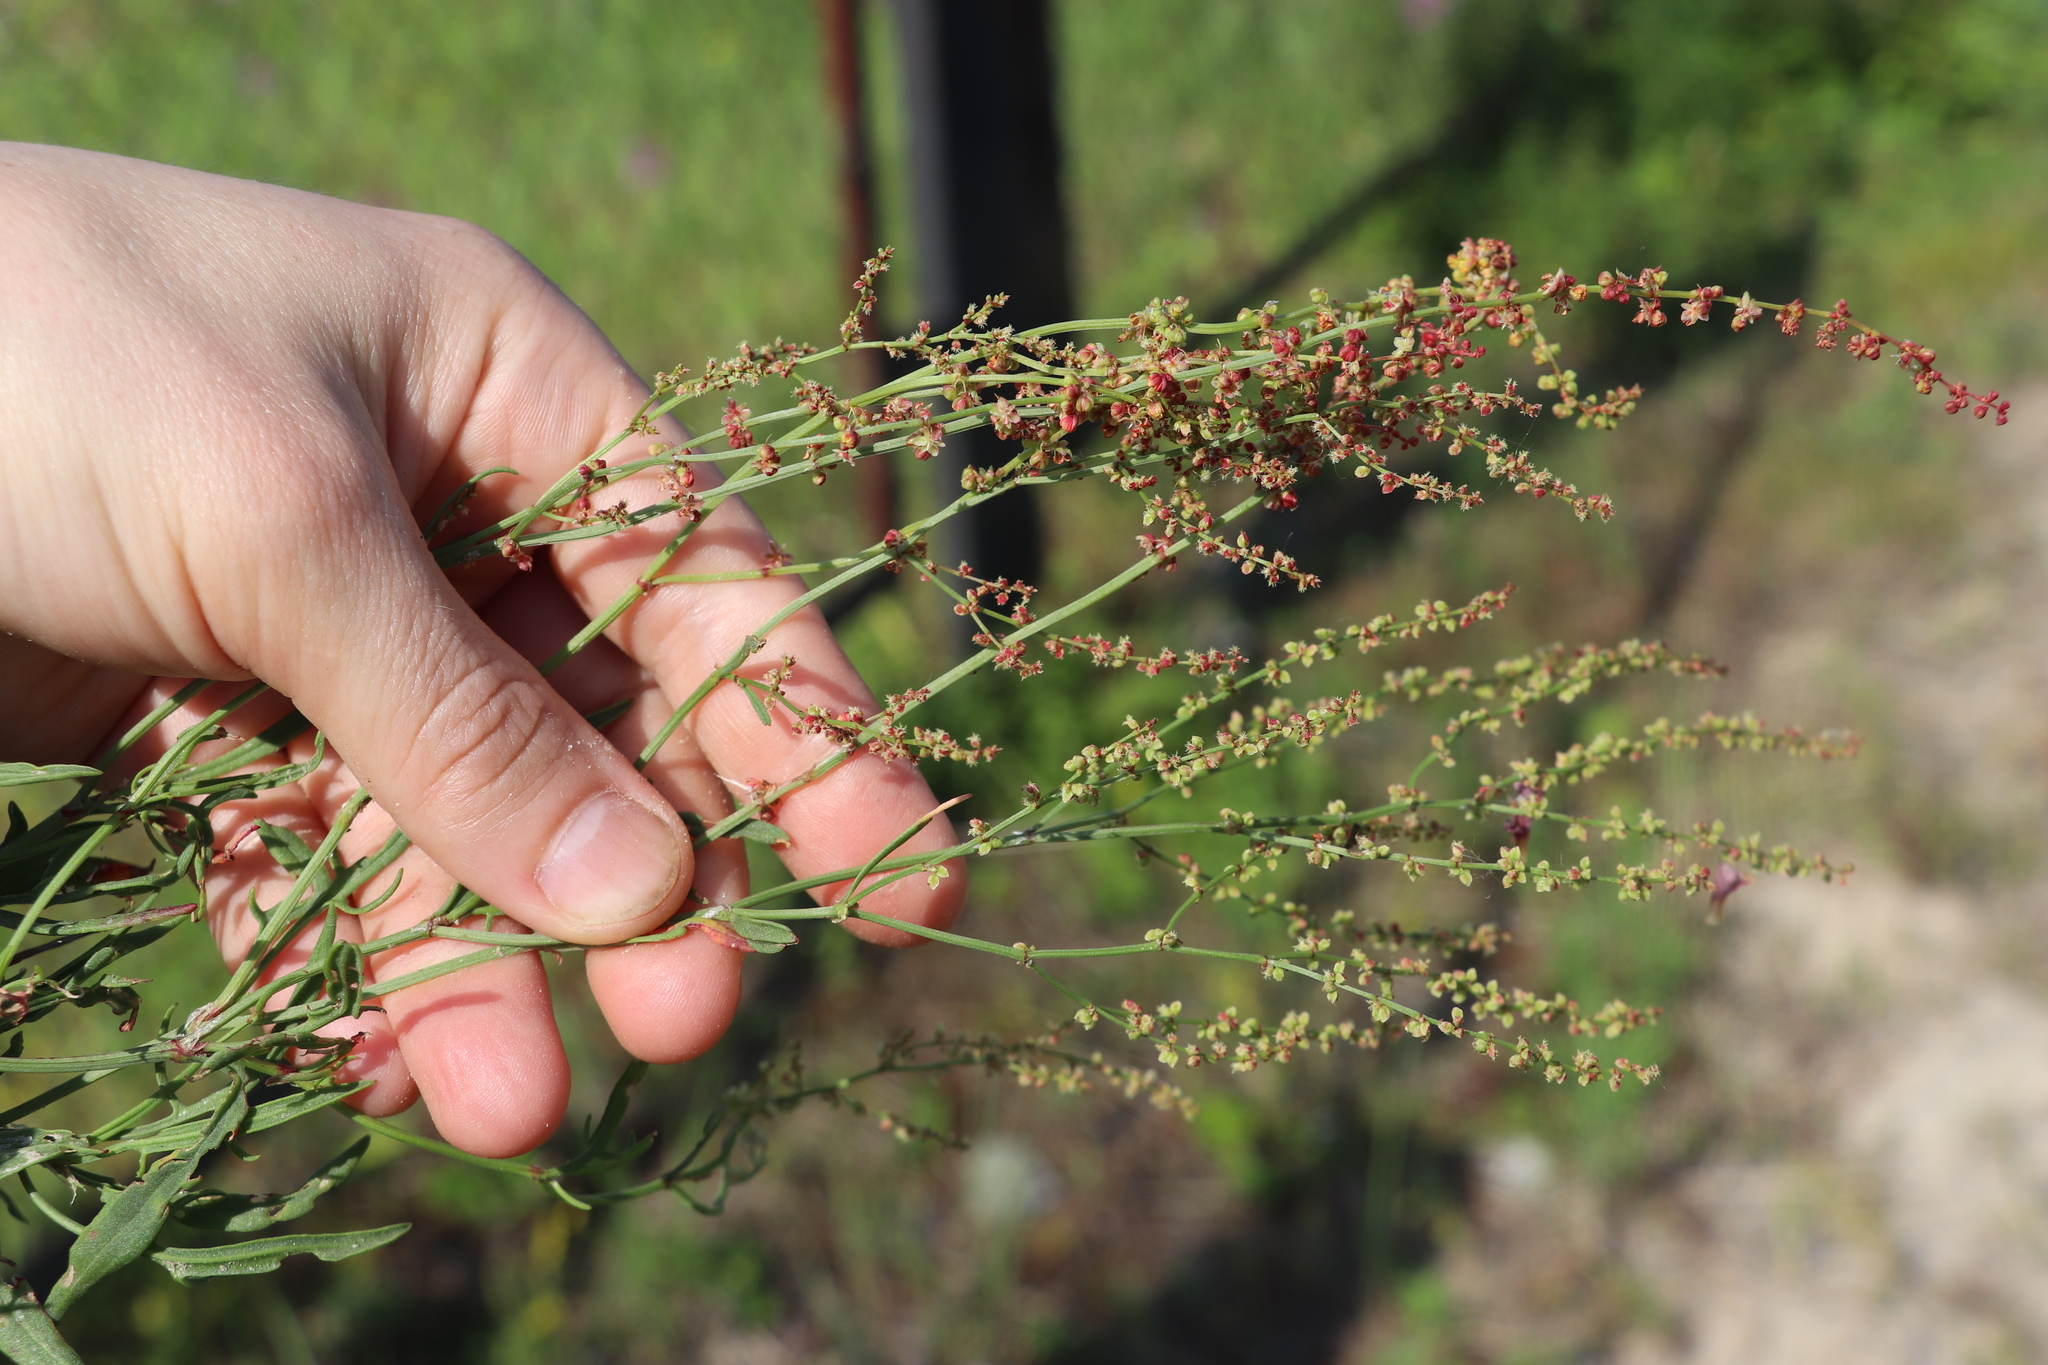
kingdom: Plantae
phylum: Tracheophyta
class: Magnoliopsida
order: Caryophyllales
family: Polygonaceae
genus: Rumex
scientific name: Rumex acetosella
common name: Common sheep sorrel
